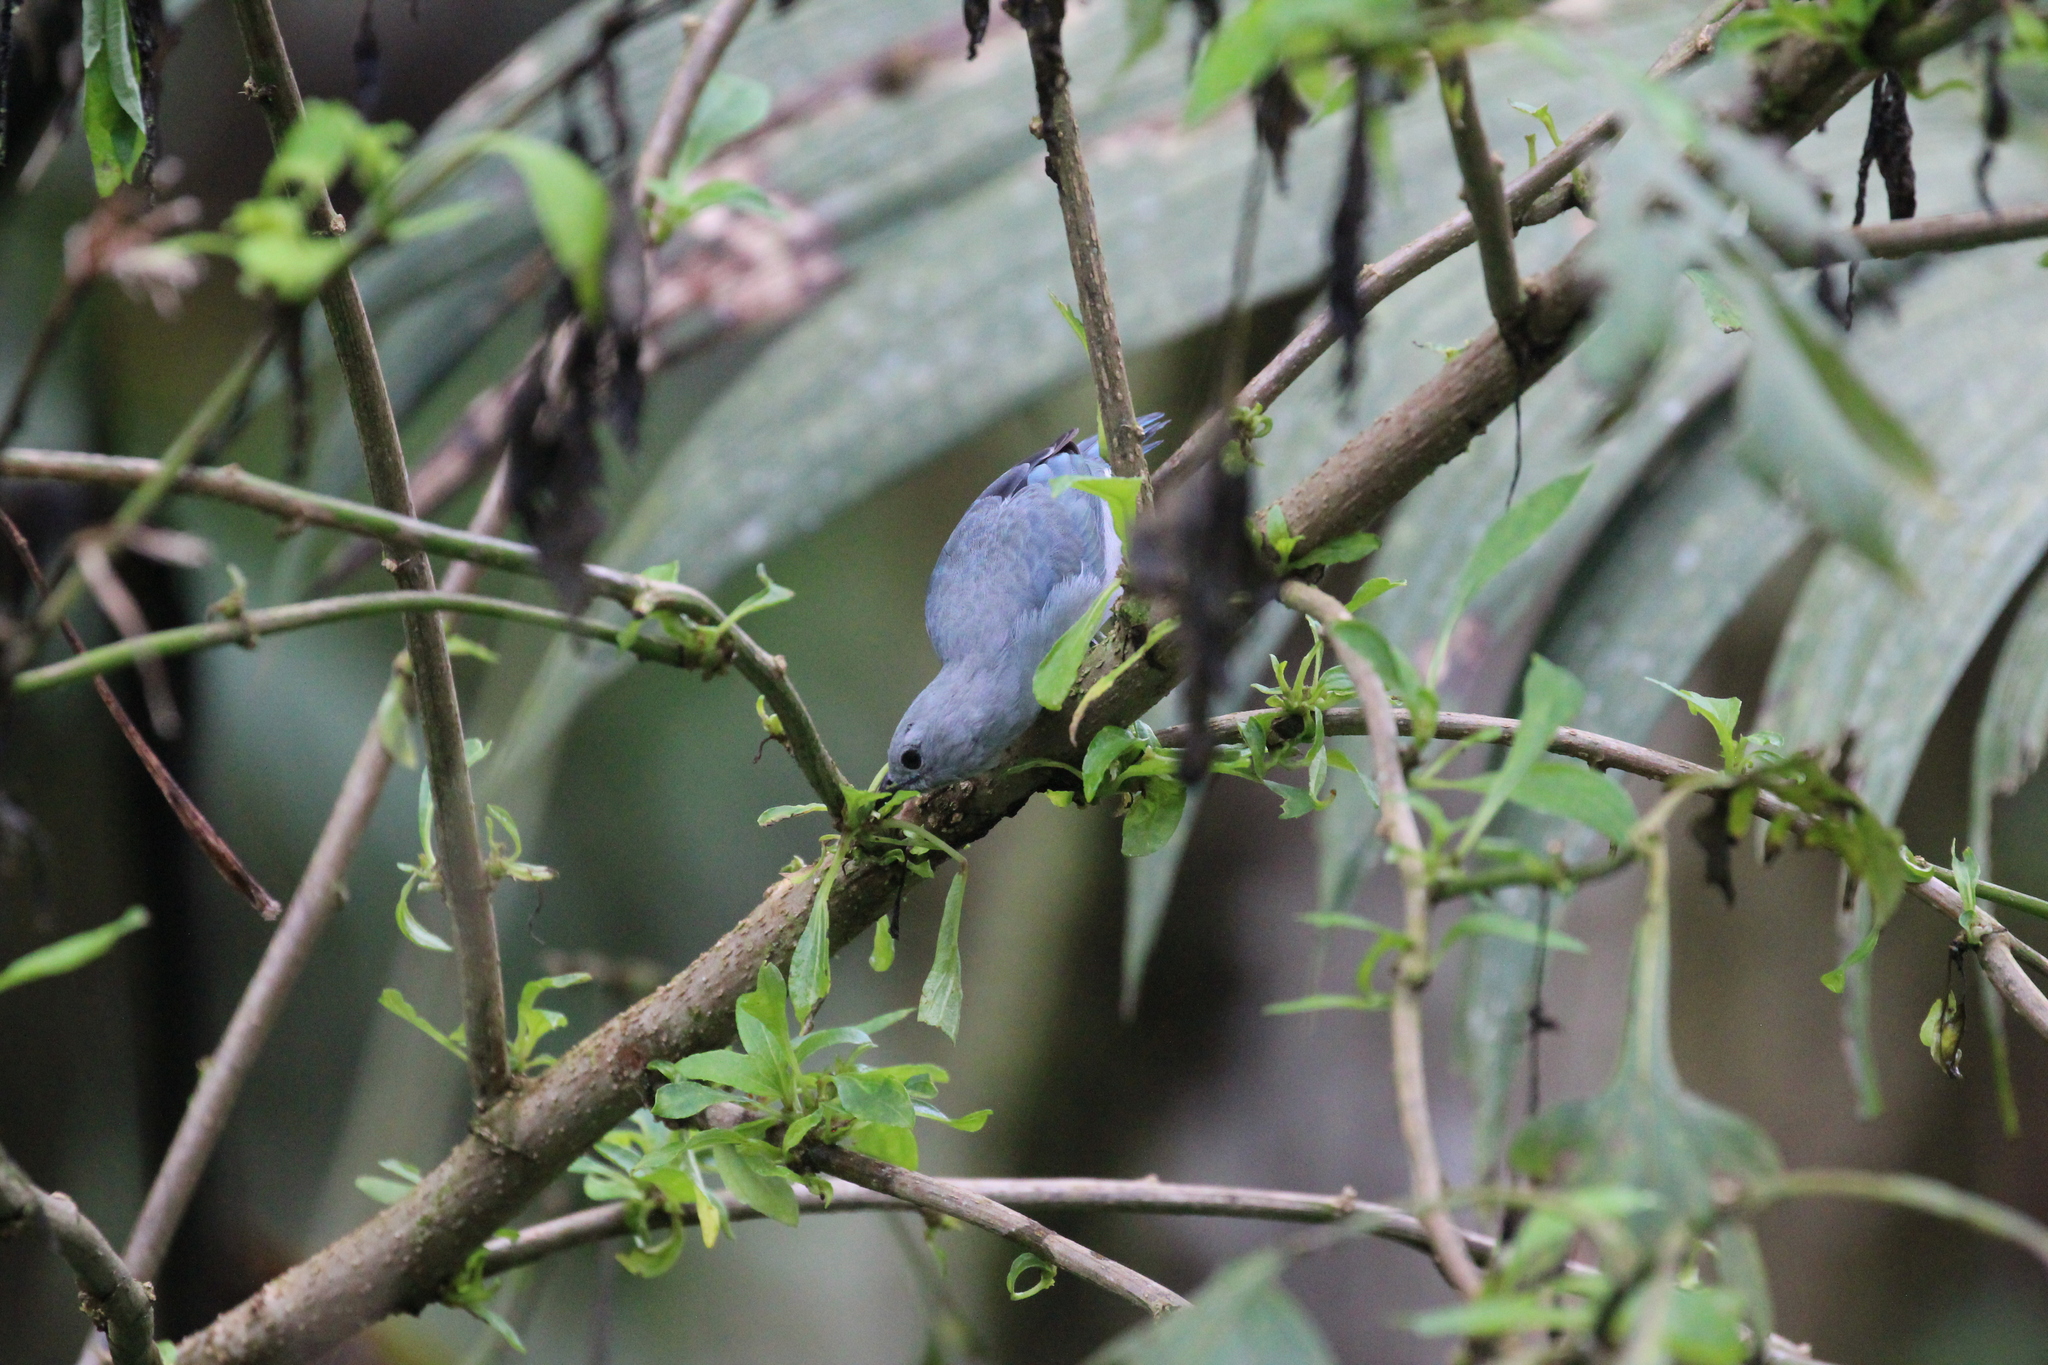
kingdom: Animalia
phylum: Chordata
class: Aves
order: Passeriformes
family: Thraupidae
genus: Thraupis
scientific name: Thraupis episcopus
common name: Blue-grey tanager
